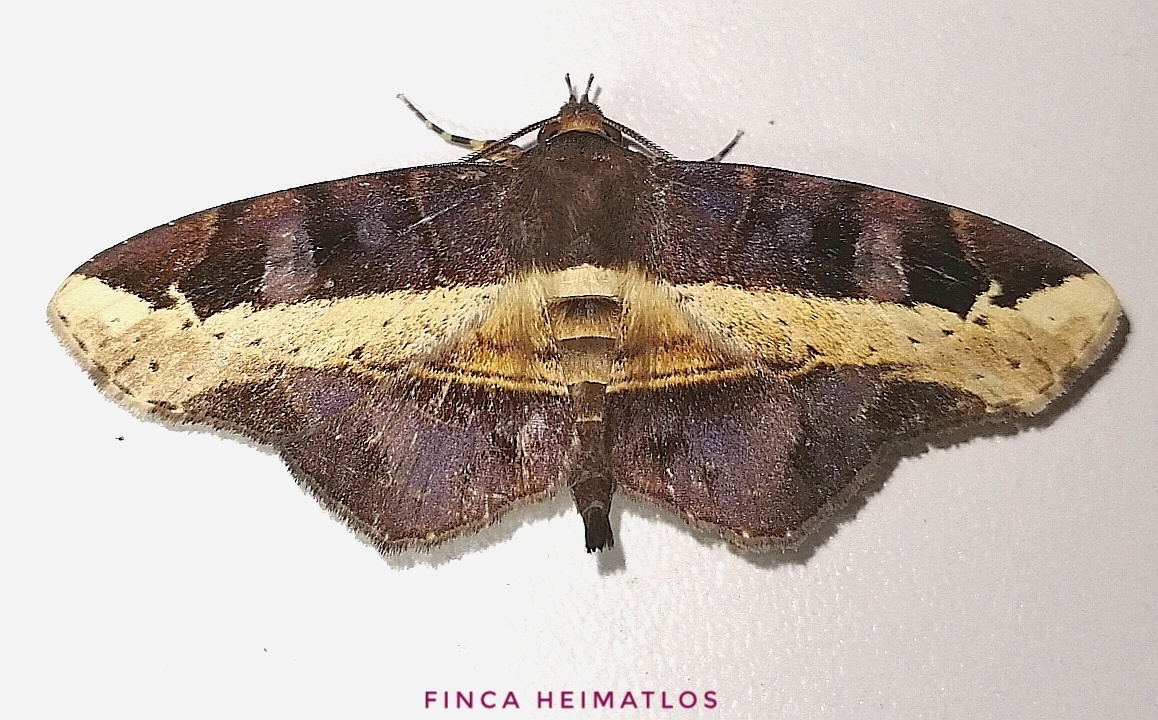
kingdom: Animalia
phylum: Arthropoda
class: Insecta
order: Lepidoptera
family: Erebidae
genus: Vogia
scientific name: Vogia mimica
